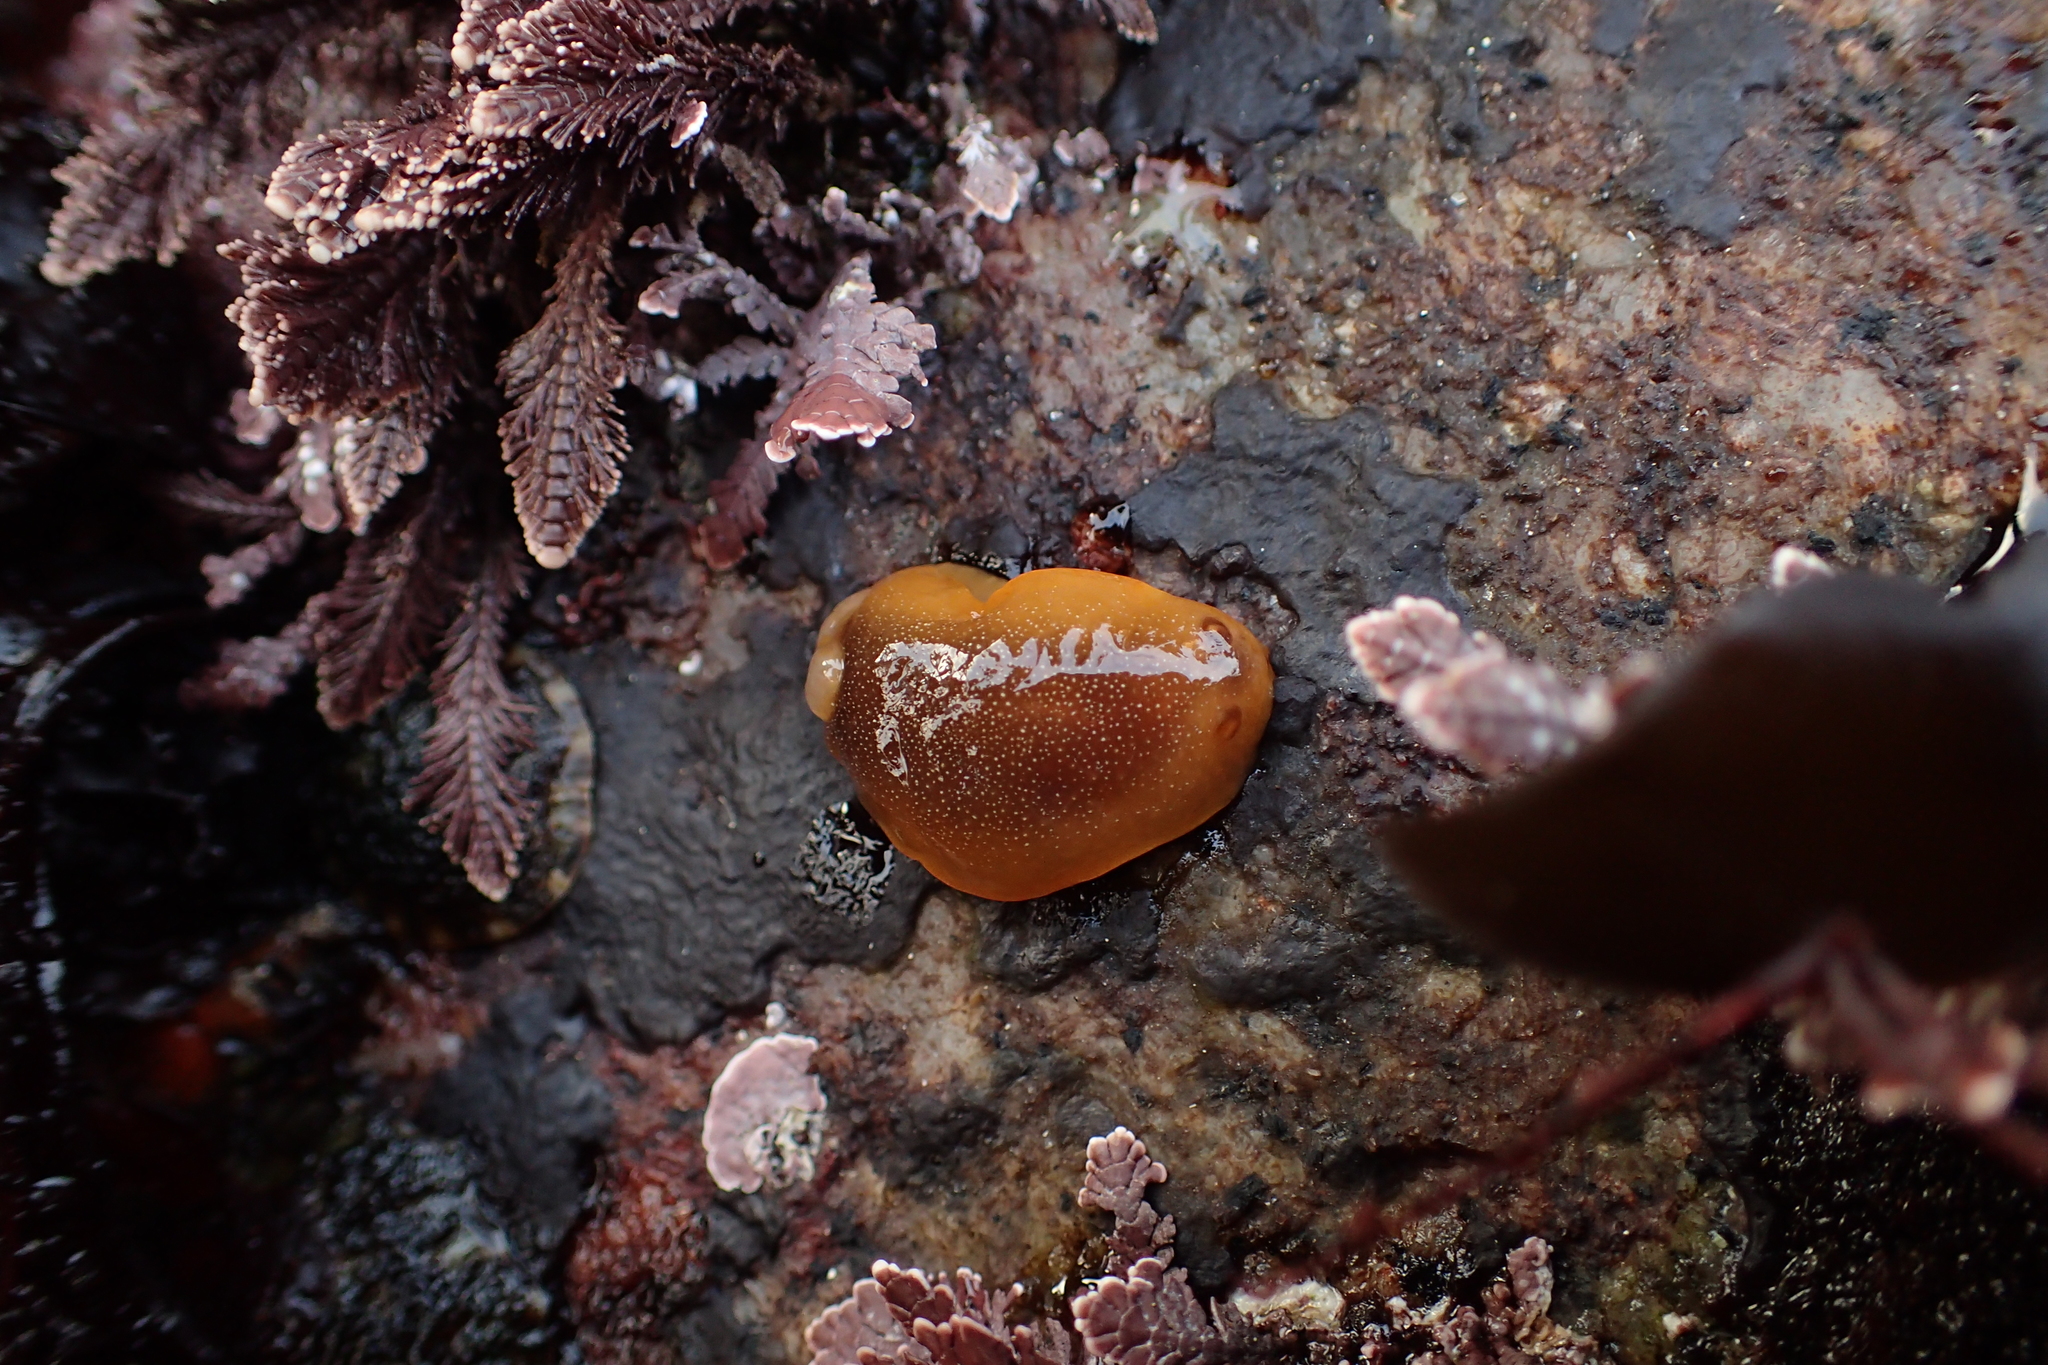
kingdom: Animalia
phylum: Mollusca
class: Gastropoda
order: Nudibranchia
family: Dendrodorididae
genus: Doriopsilla
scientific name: Doriopsilla albopunctata
